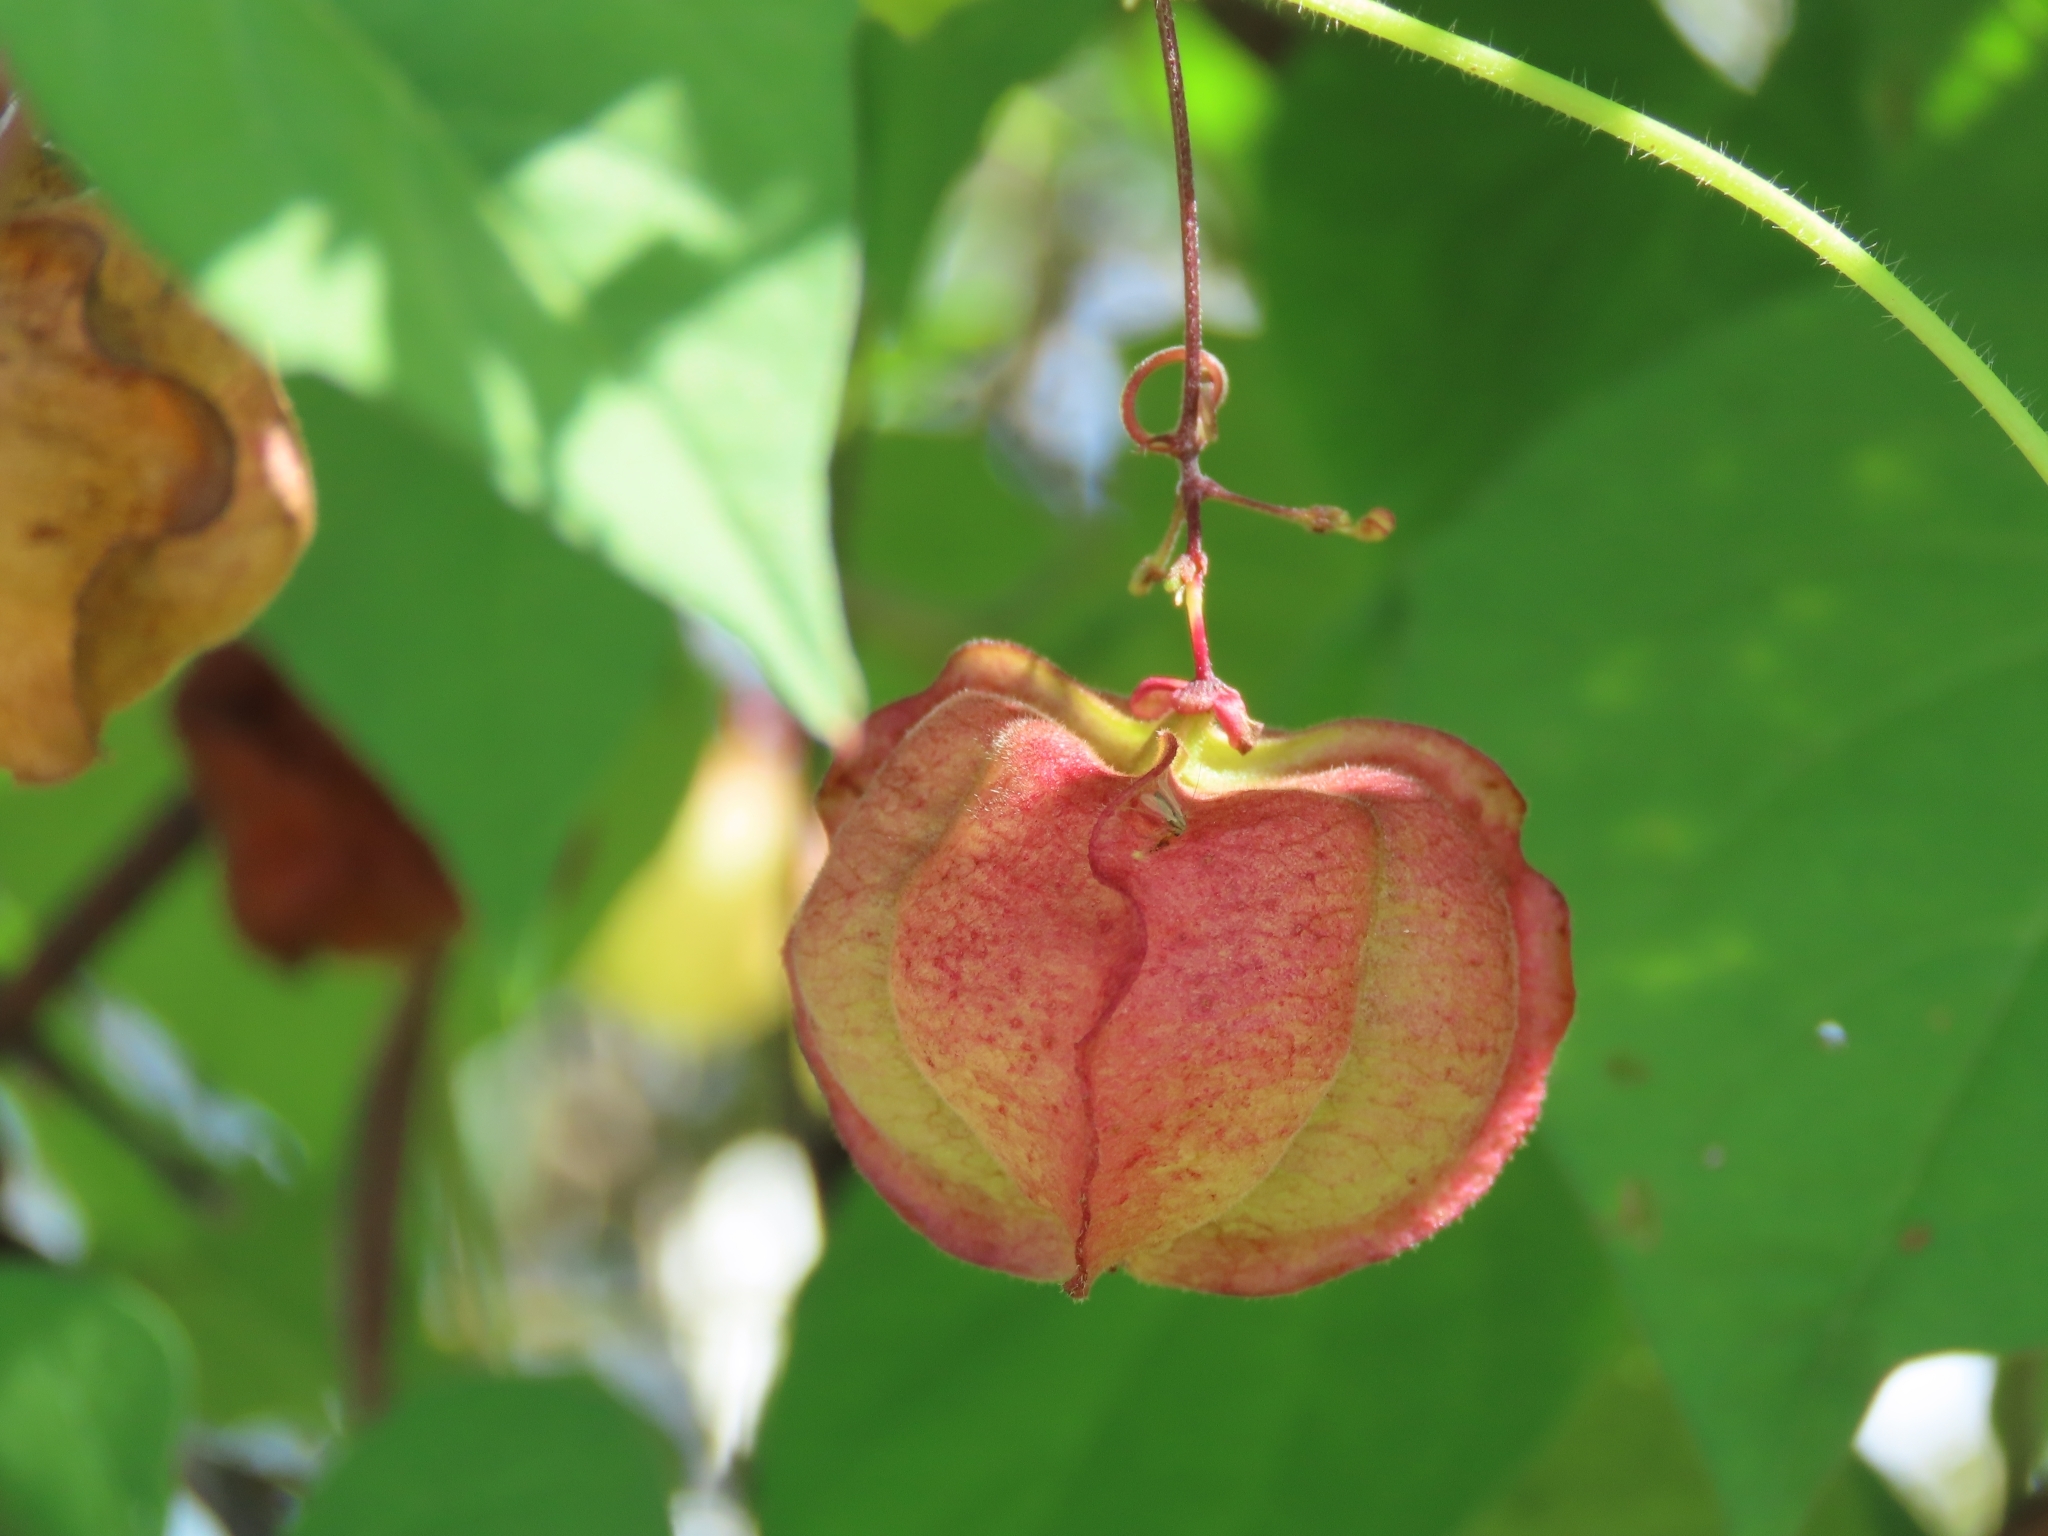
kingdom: Plantae
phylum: Tracheophyta
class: Magnoliopsida
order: Sapindales
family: Sapindaceae
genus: Cardiospermum
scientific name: Cardiospermum halicacabum
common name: Balloon vine
